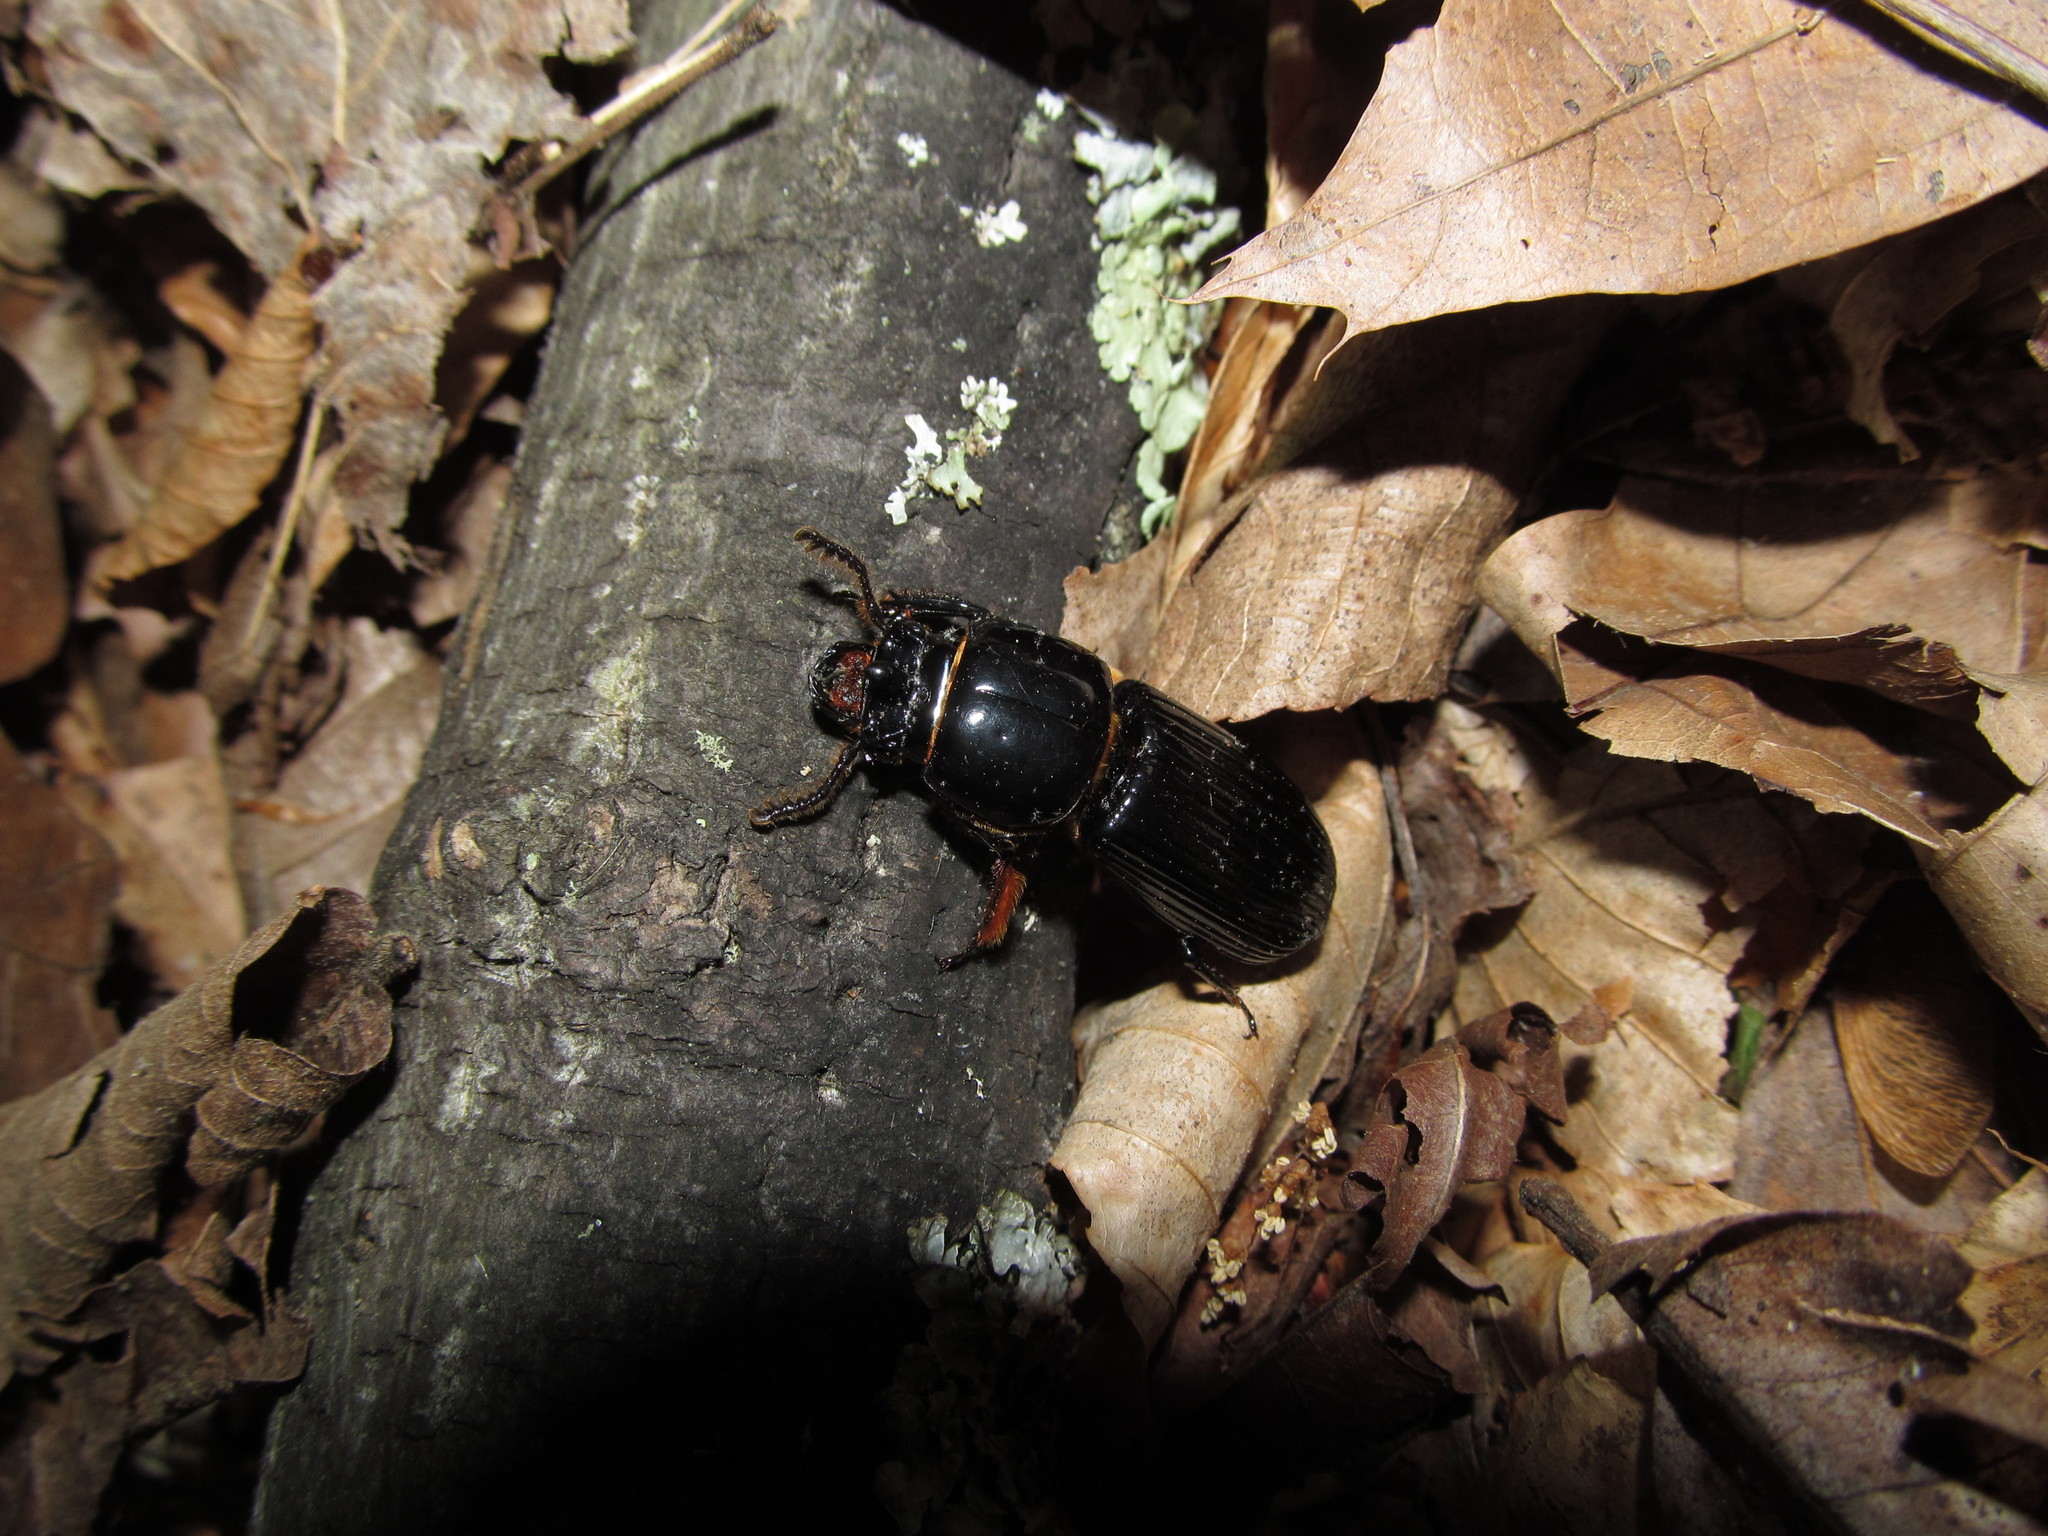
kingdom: Animalia
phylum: Arthropoda
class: Insecta
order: Coleoptera
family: Passalidae
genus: Odontotaenius
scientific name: Odontotaenius disjunctus
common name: Patent leather beetle
